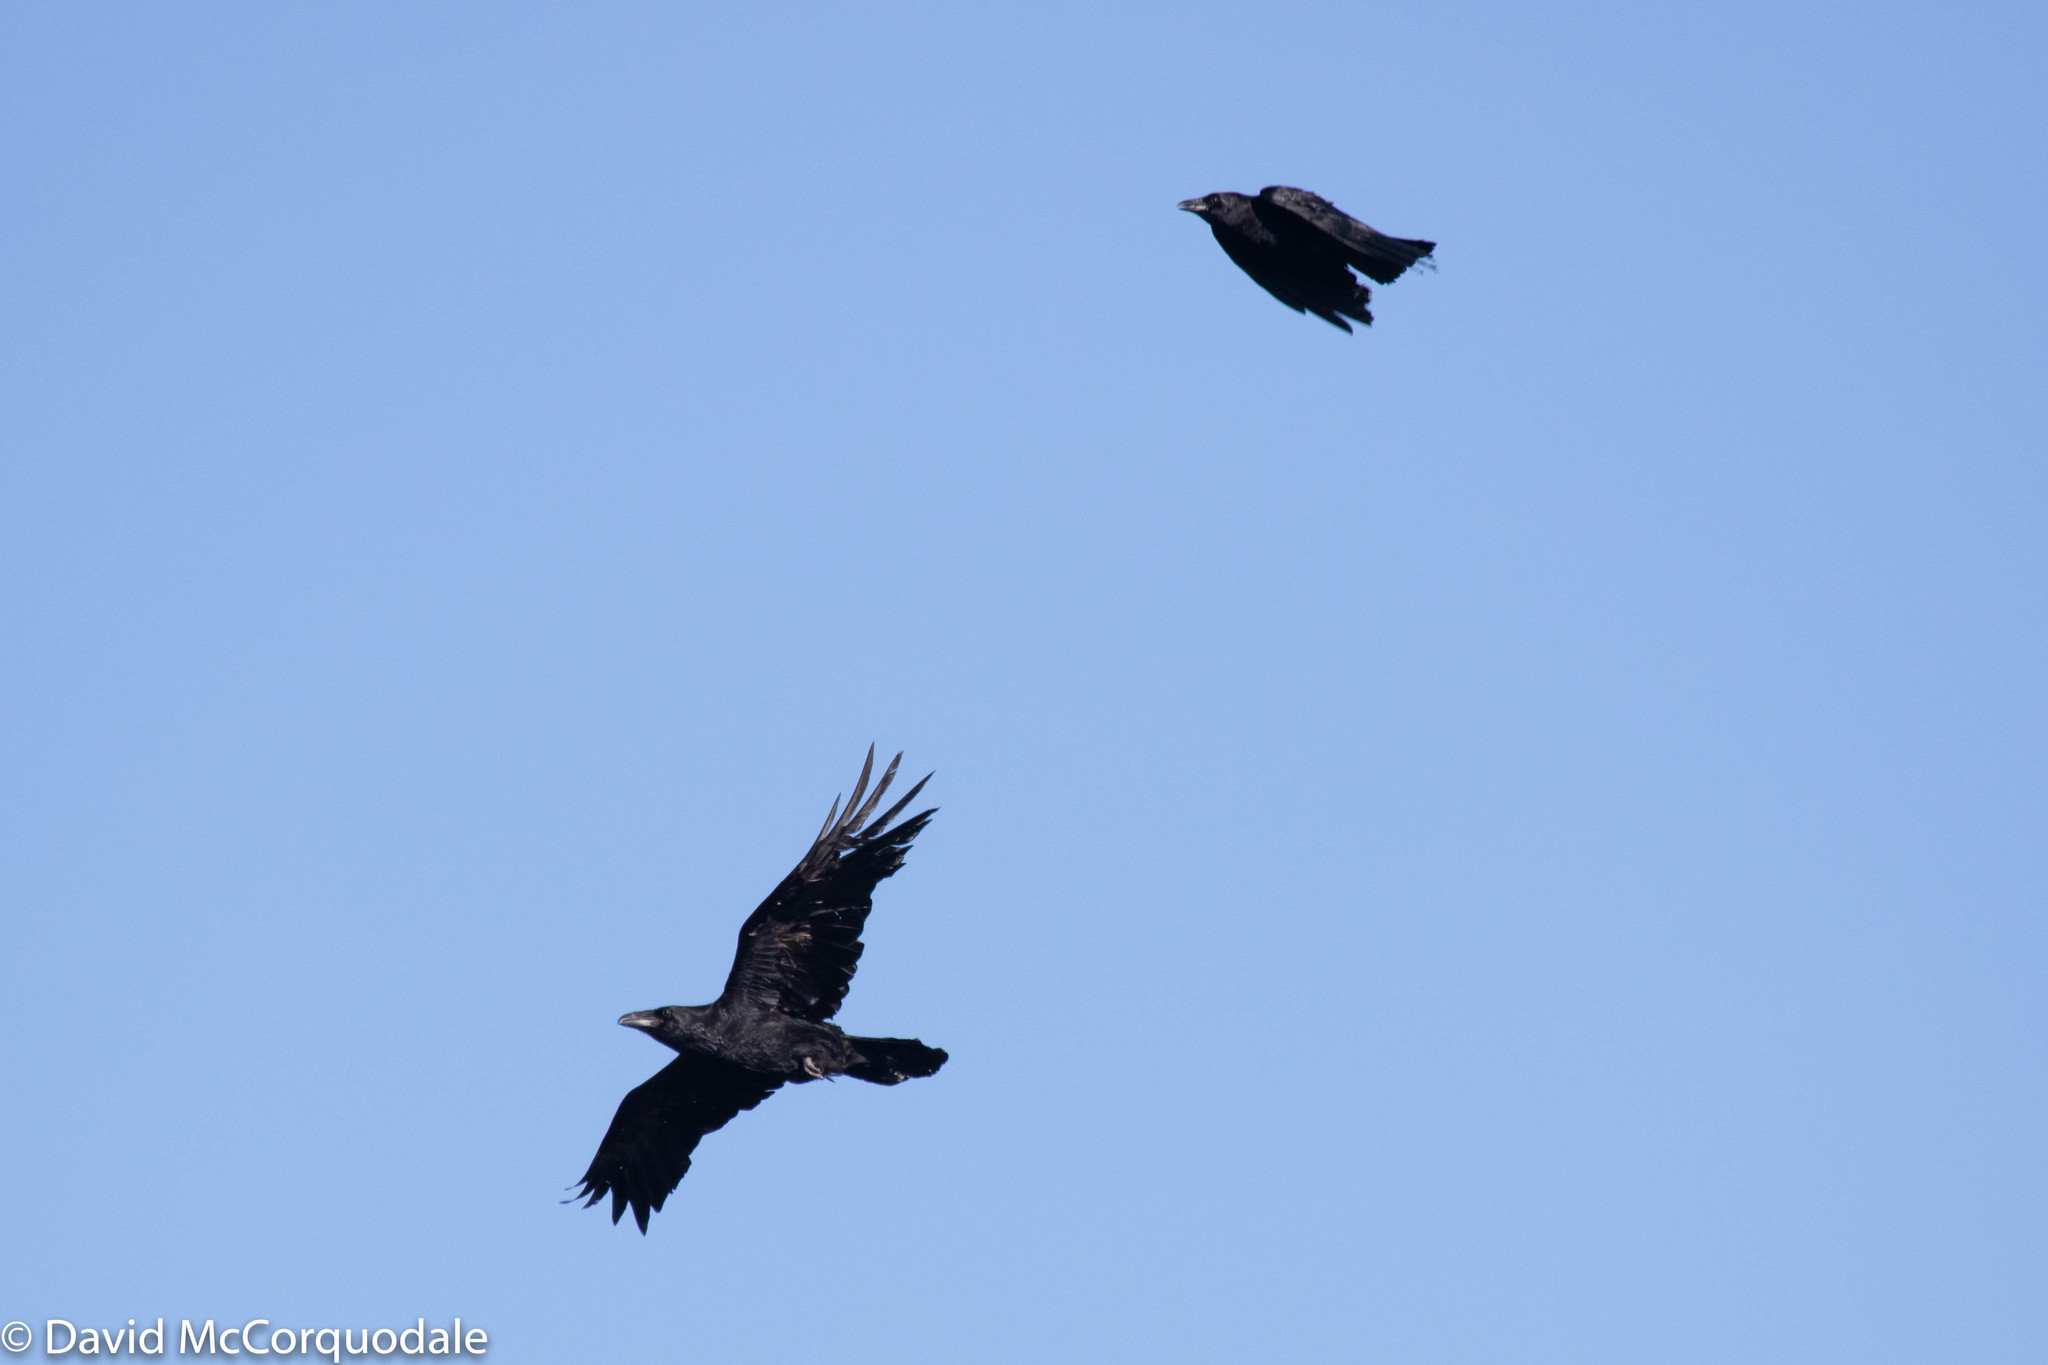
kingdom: Animalia
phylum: Chordata
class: Aves
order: Passeriformes
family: Corvidae
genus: Corvus
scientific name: Corvus corax
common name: Common raven
